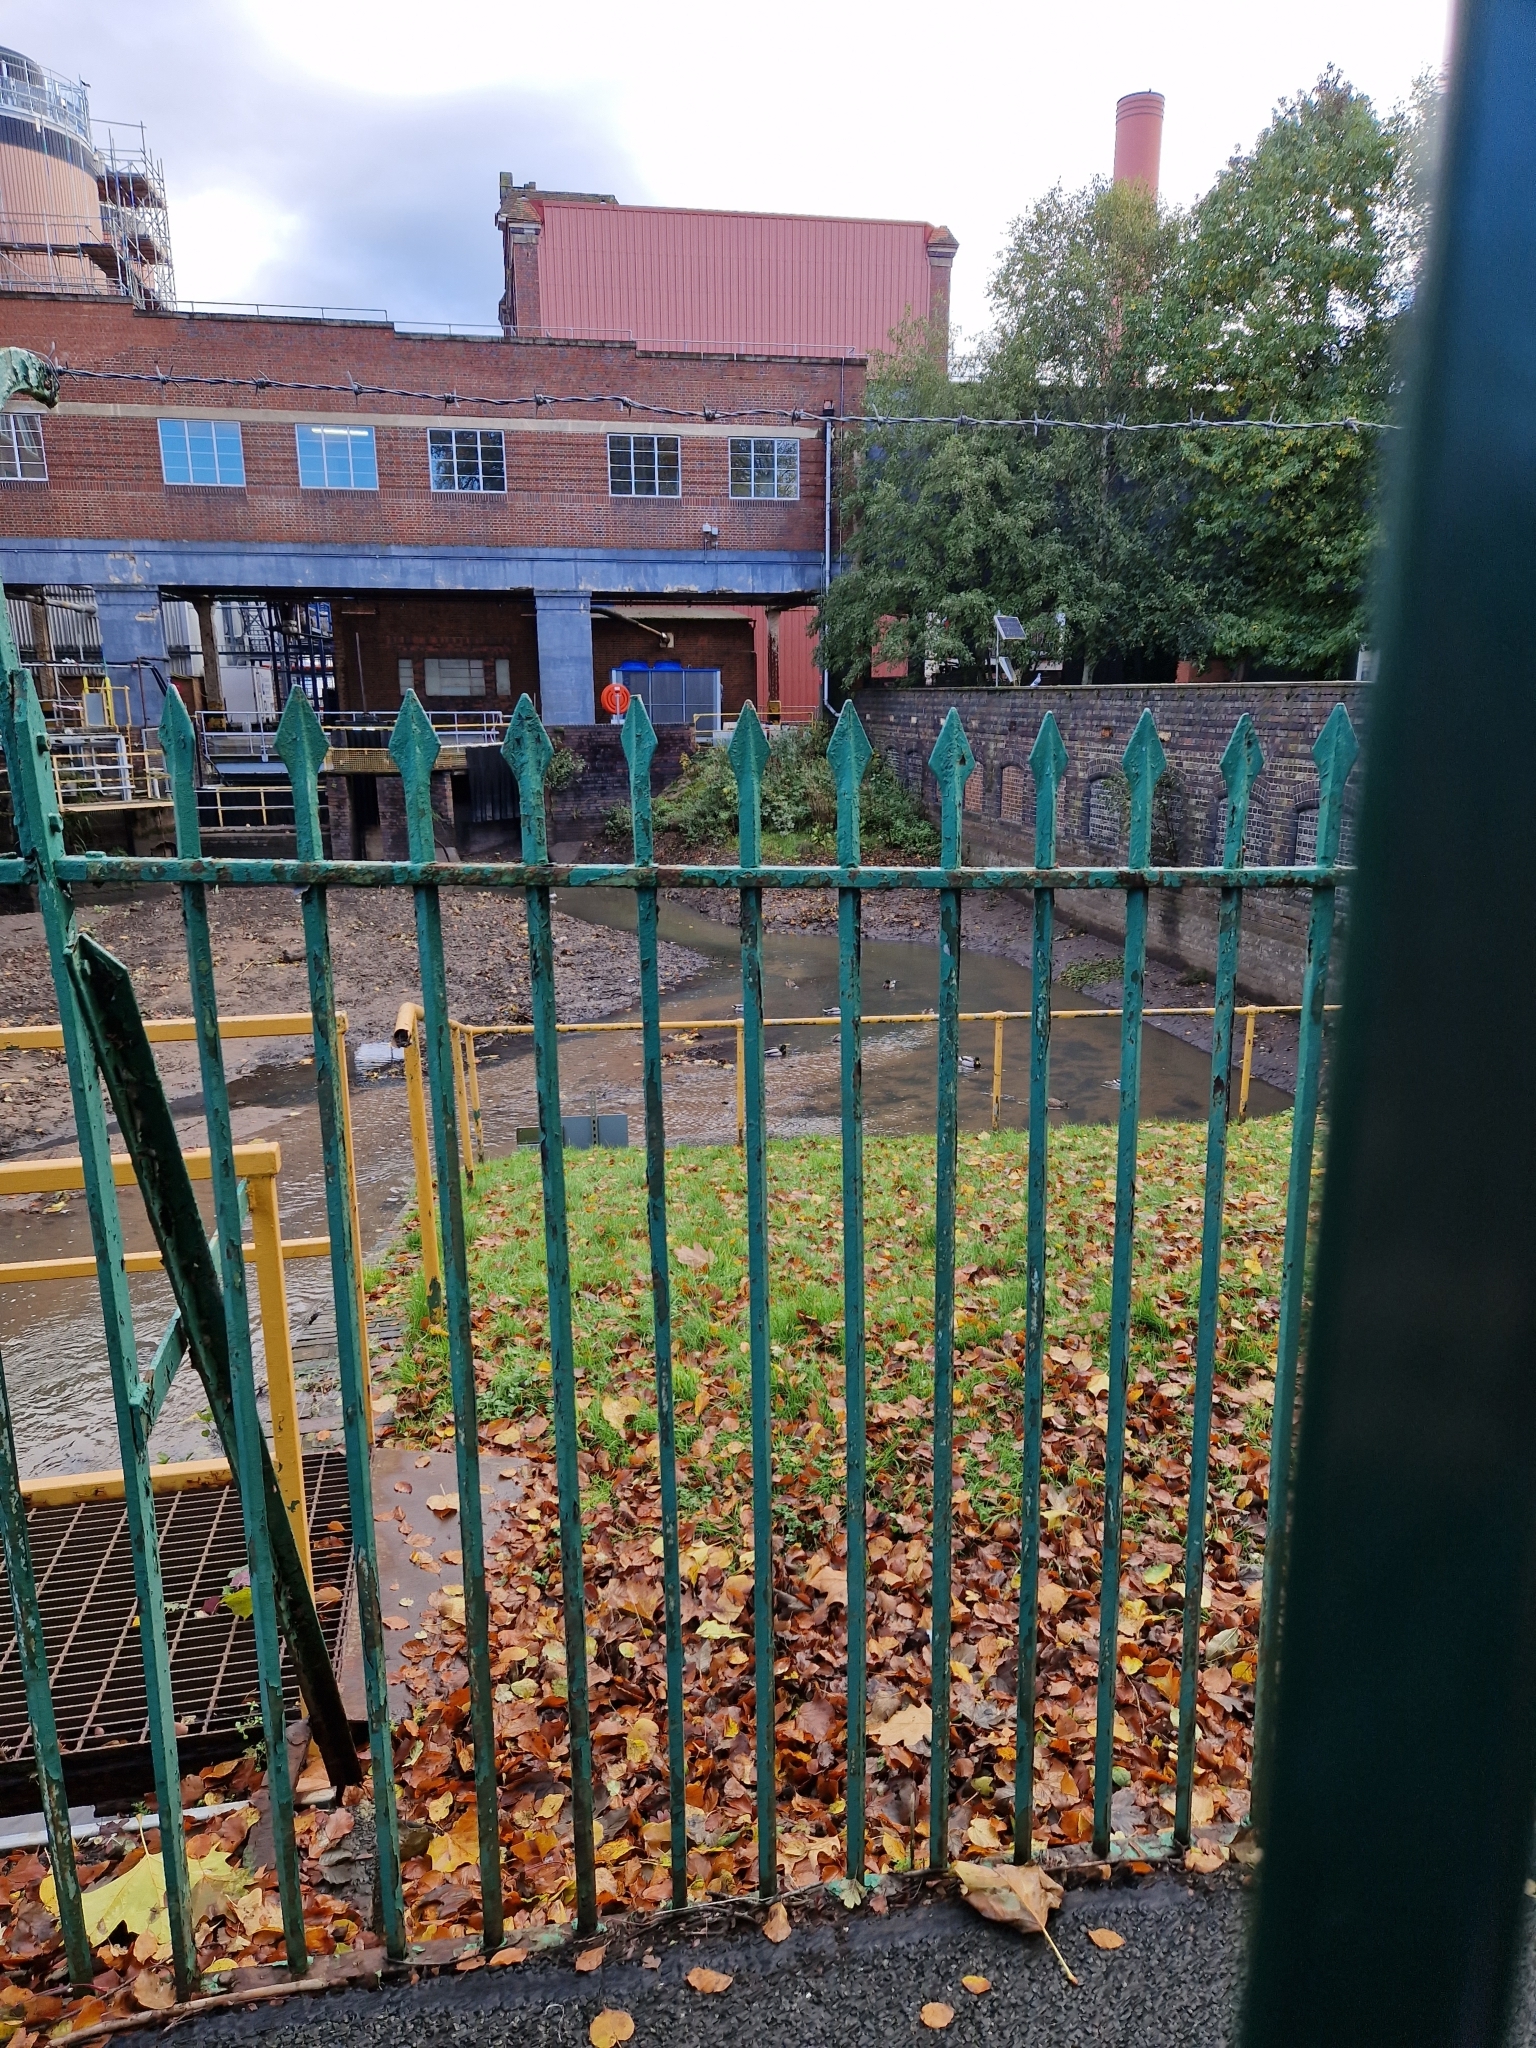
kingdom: Animalia
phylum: Chordata
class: Aves
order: Anseriformes
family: Anatidae
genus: Anas
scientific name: Anas platyrhynchos
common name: Mallard
